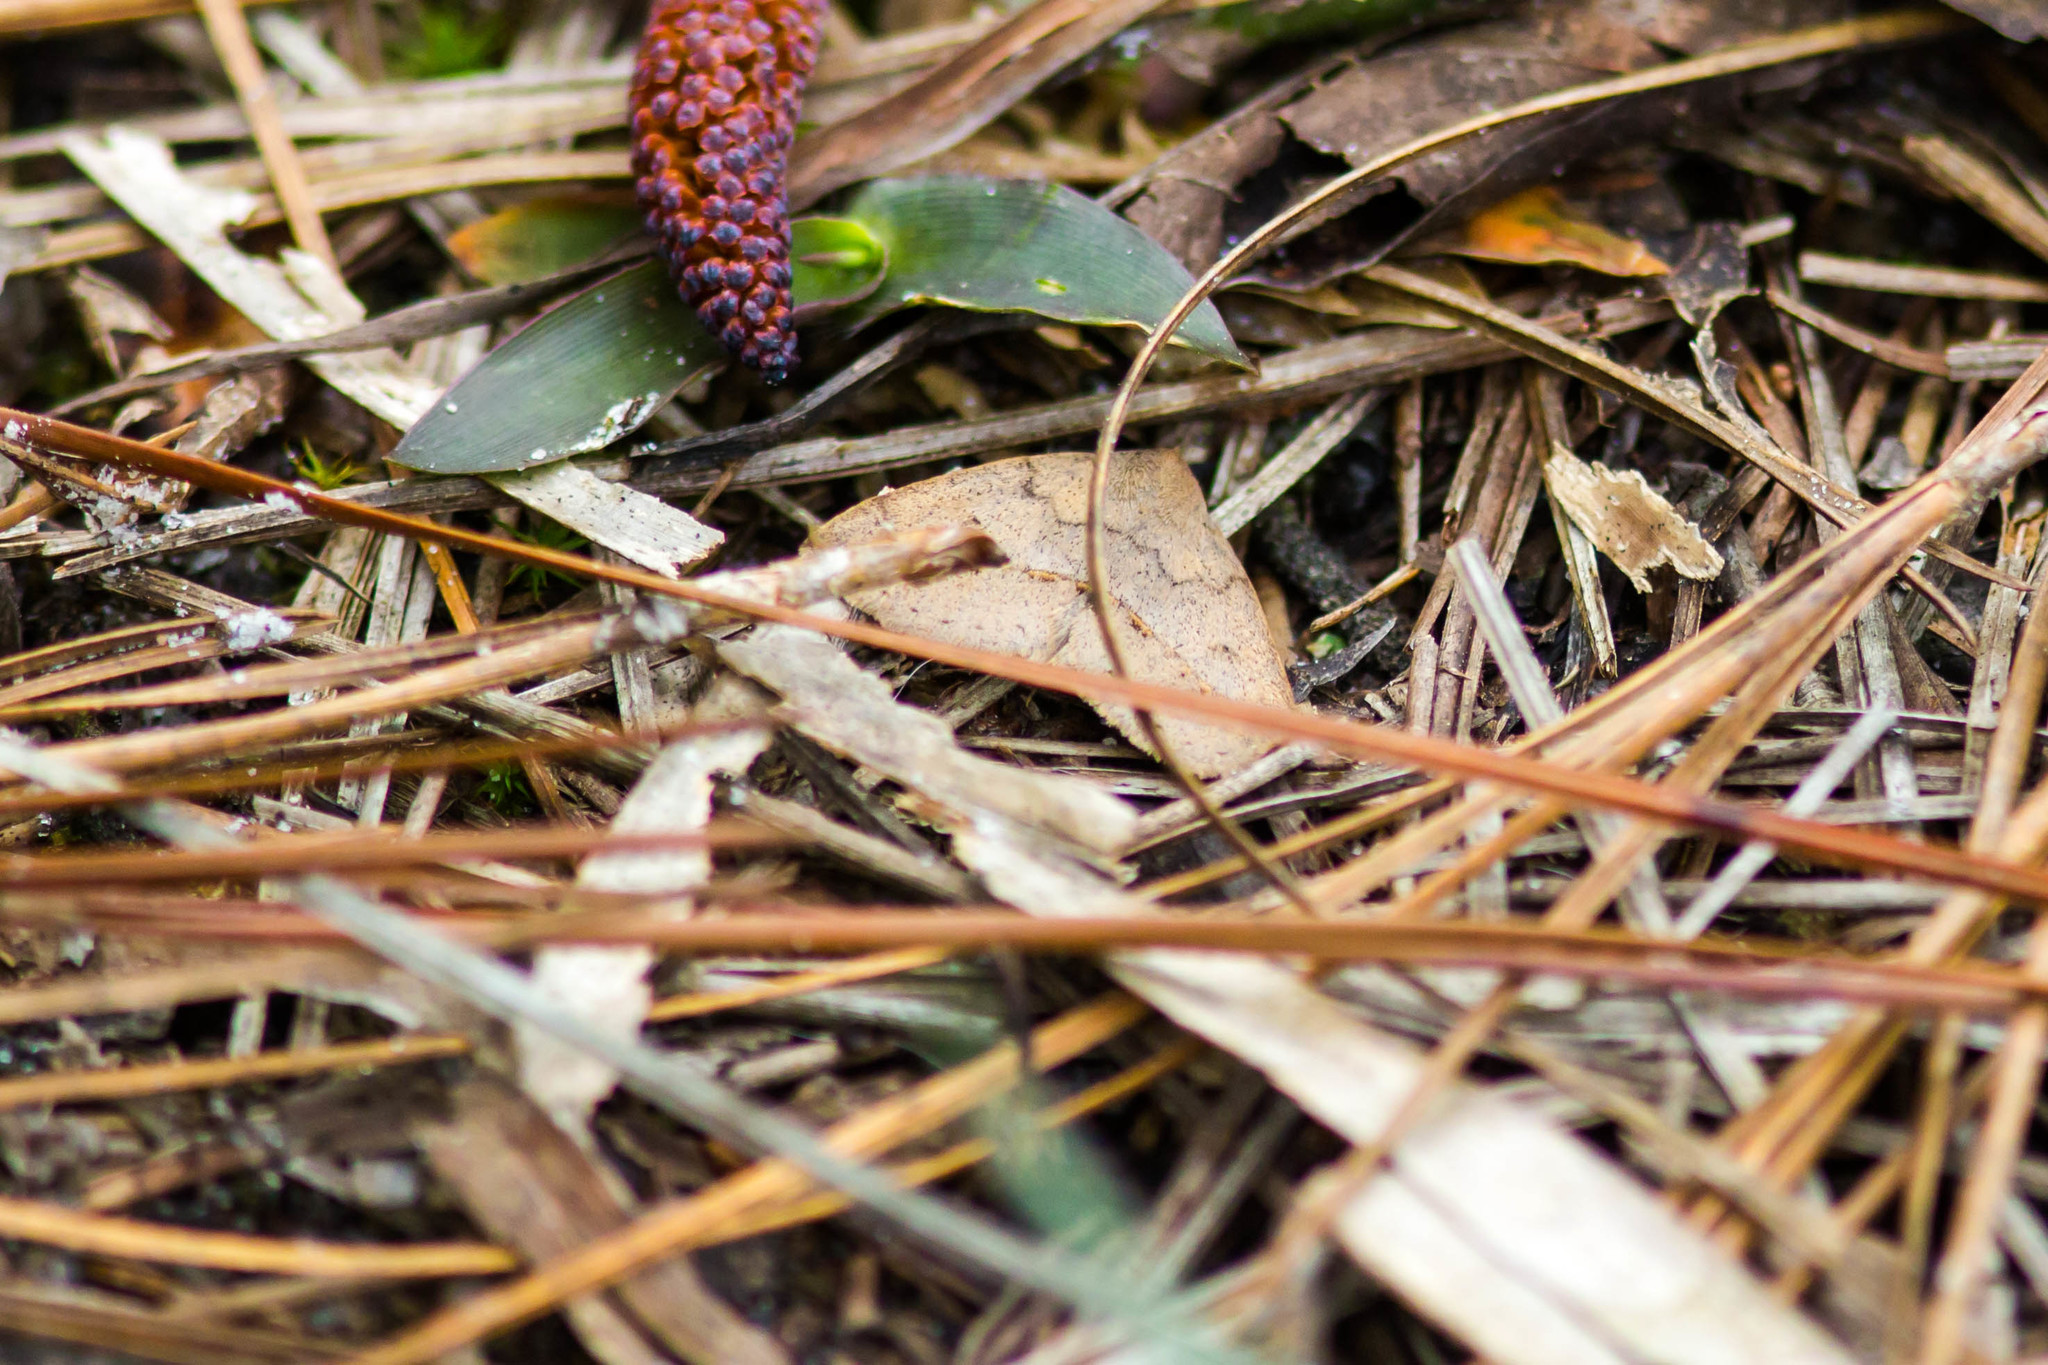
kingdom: Animalia
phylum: Arthropoda
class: Insecta
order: Lepidoptera
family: Erebidae
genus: Argyrostrotis
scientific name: Argyrostrotis flavistriaria
